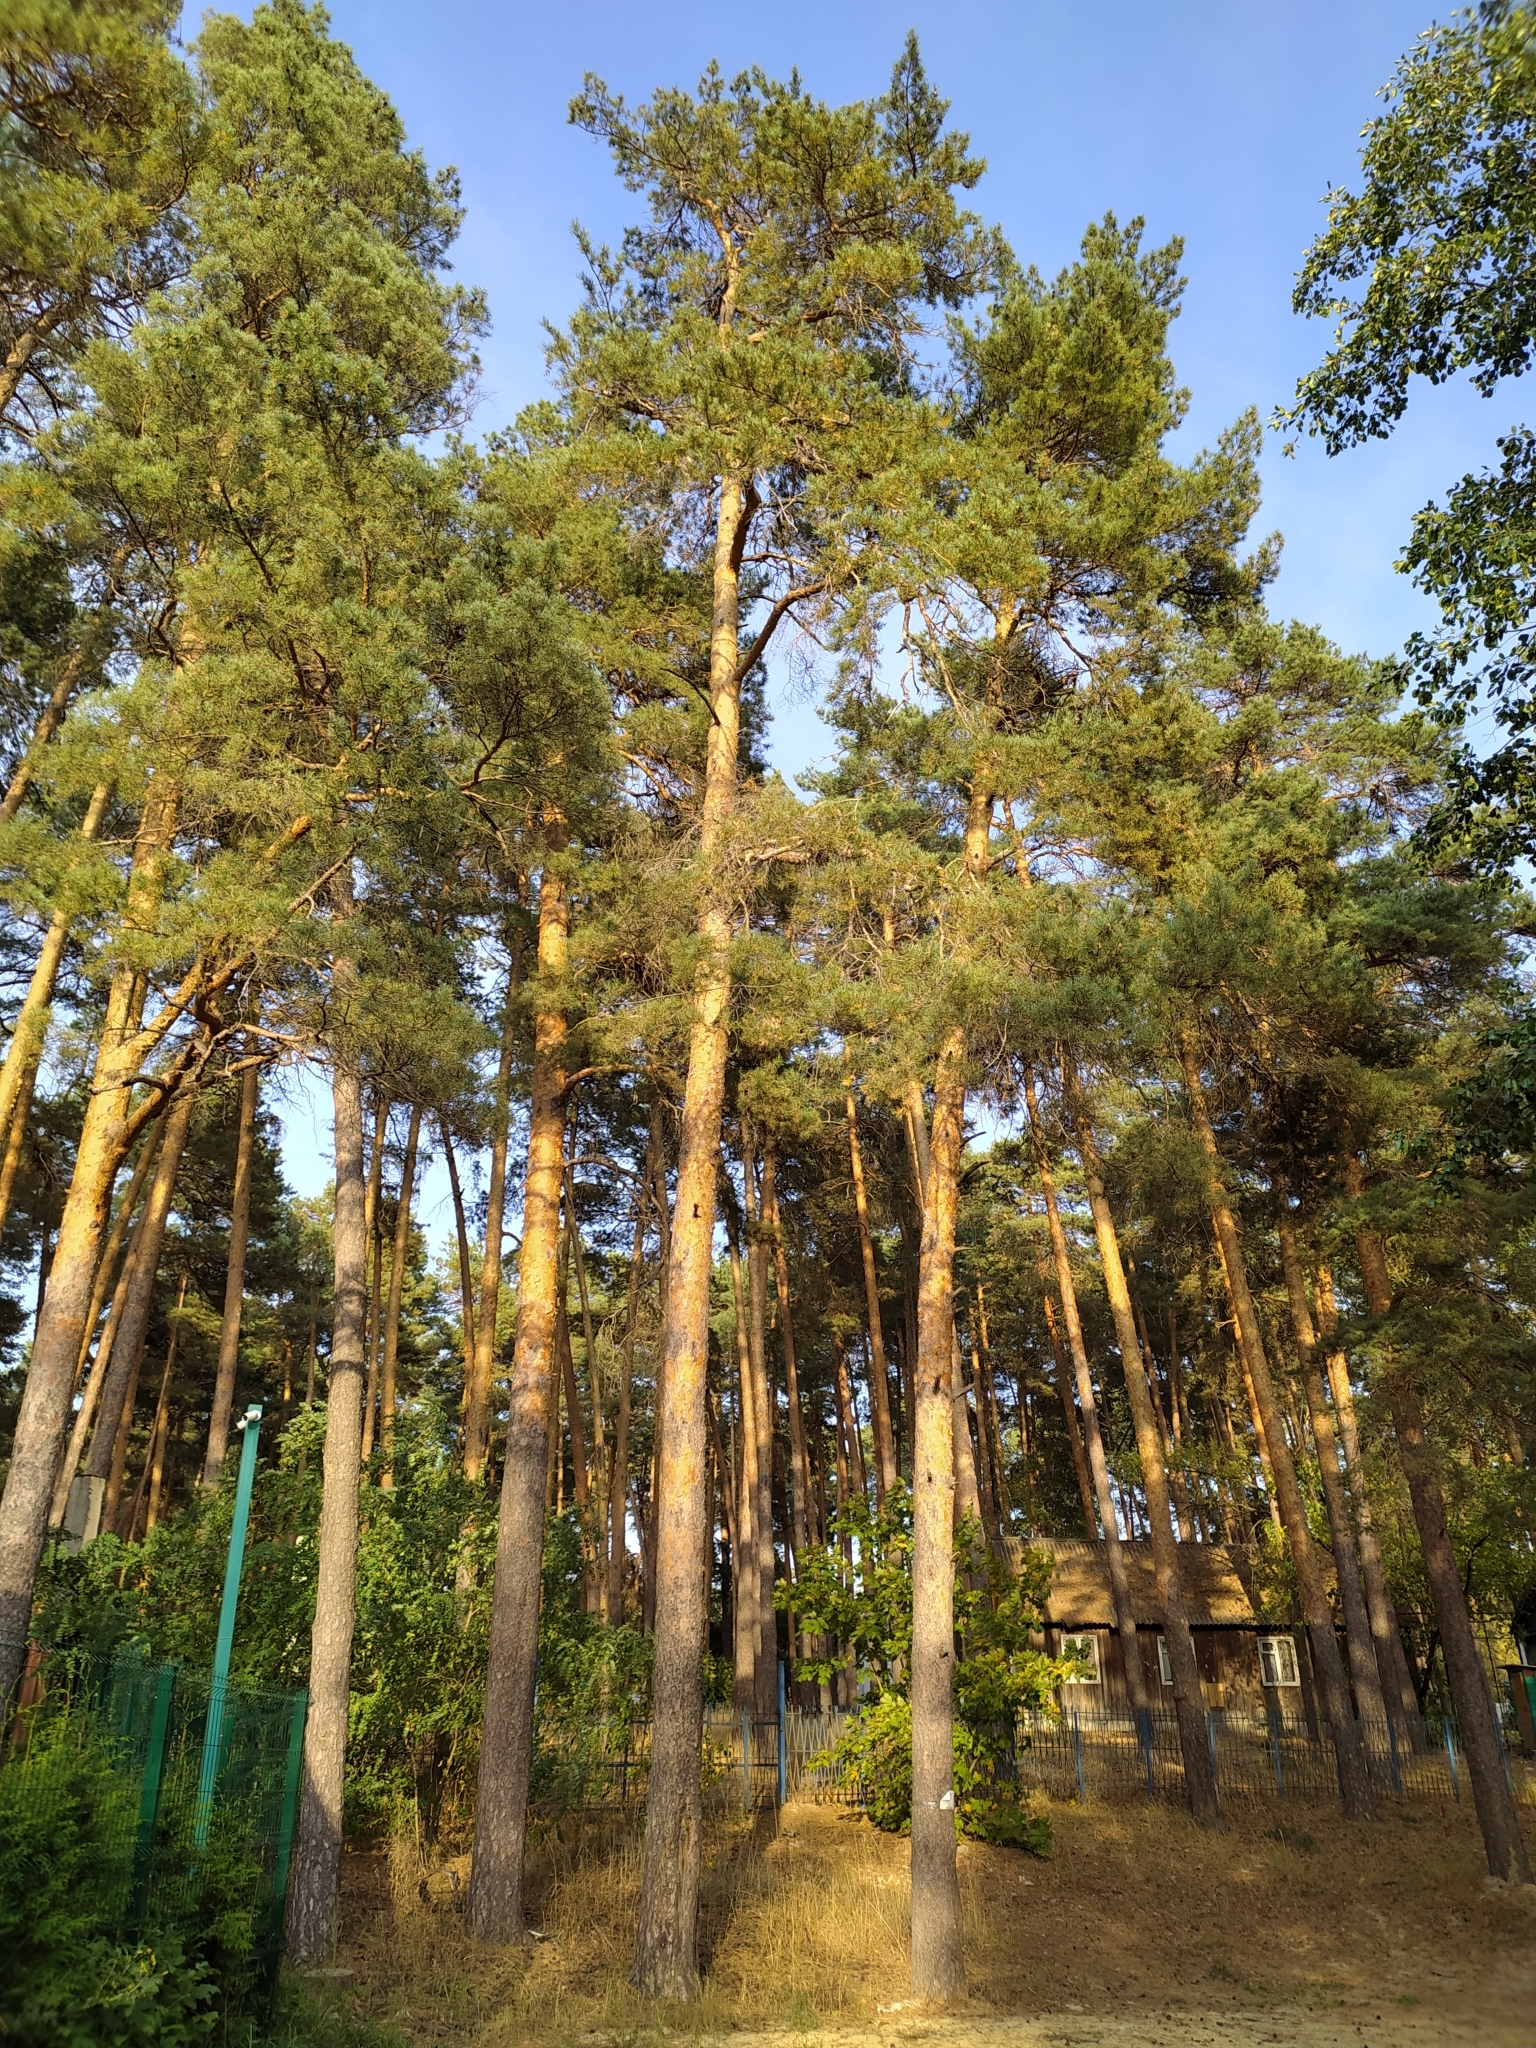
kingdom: Plantae
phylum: Tracheophyta
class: Pinopsida
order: Pinales
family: Pinaceae
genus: Pinus
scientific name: Pinus sylvestris
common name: Scots pine
